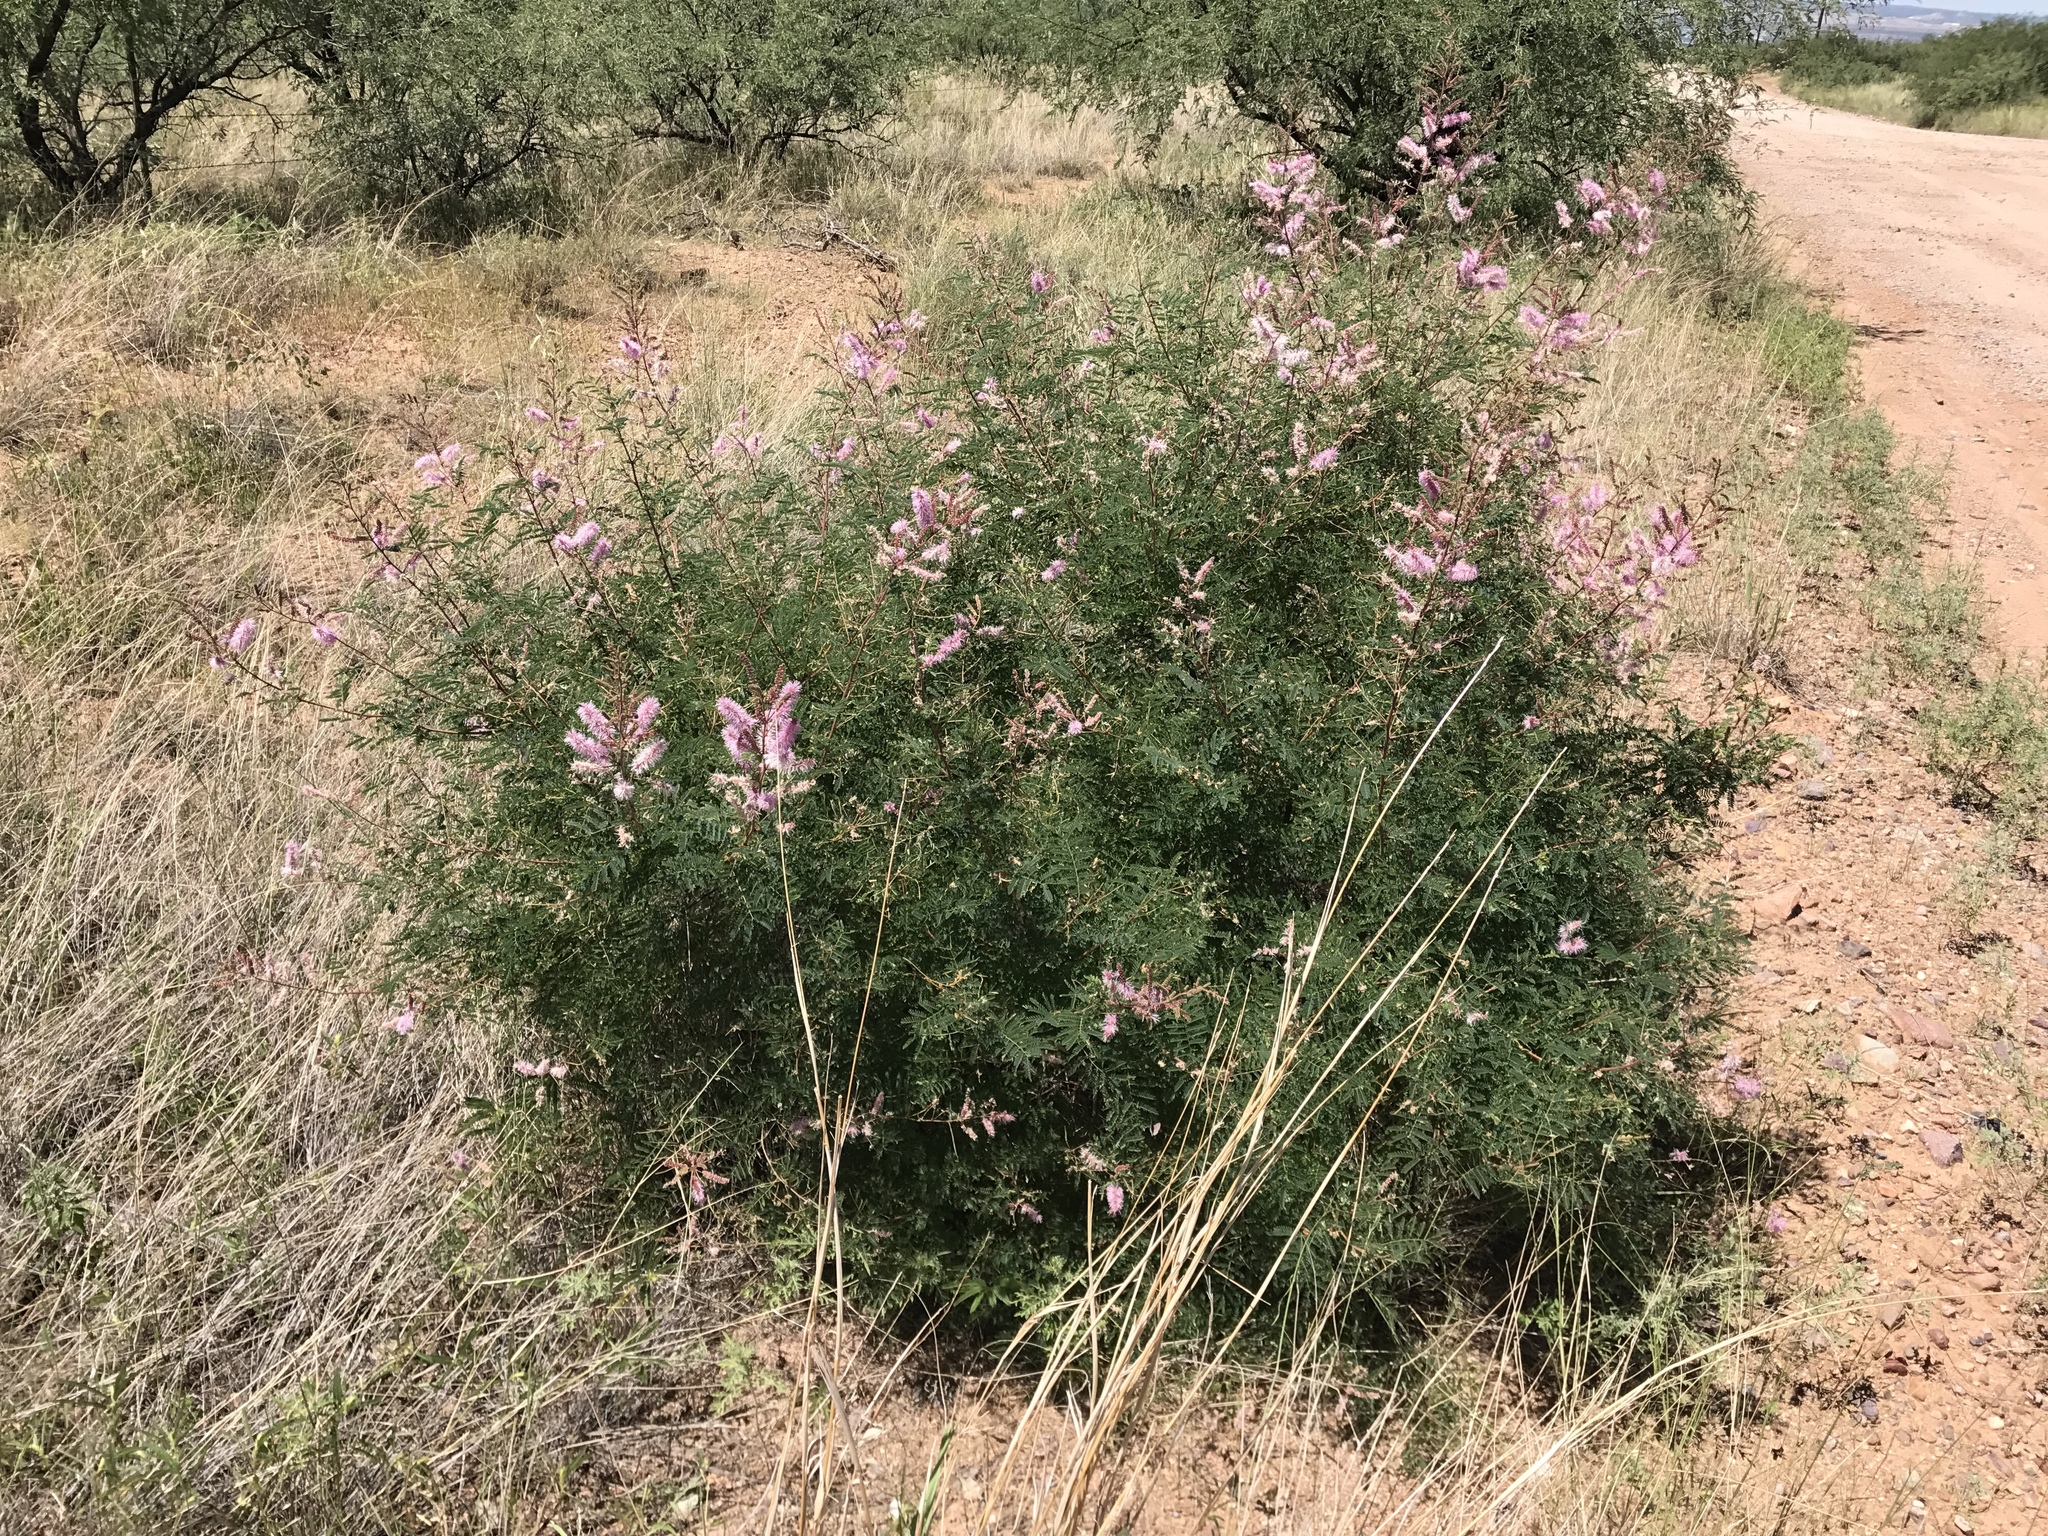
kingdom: Plantae
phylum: Tracheophyta
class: Magnoliopsida
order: Fabales
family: Fabaceae
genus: Mimosa
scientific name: Mimosa dysocarpa
